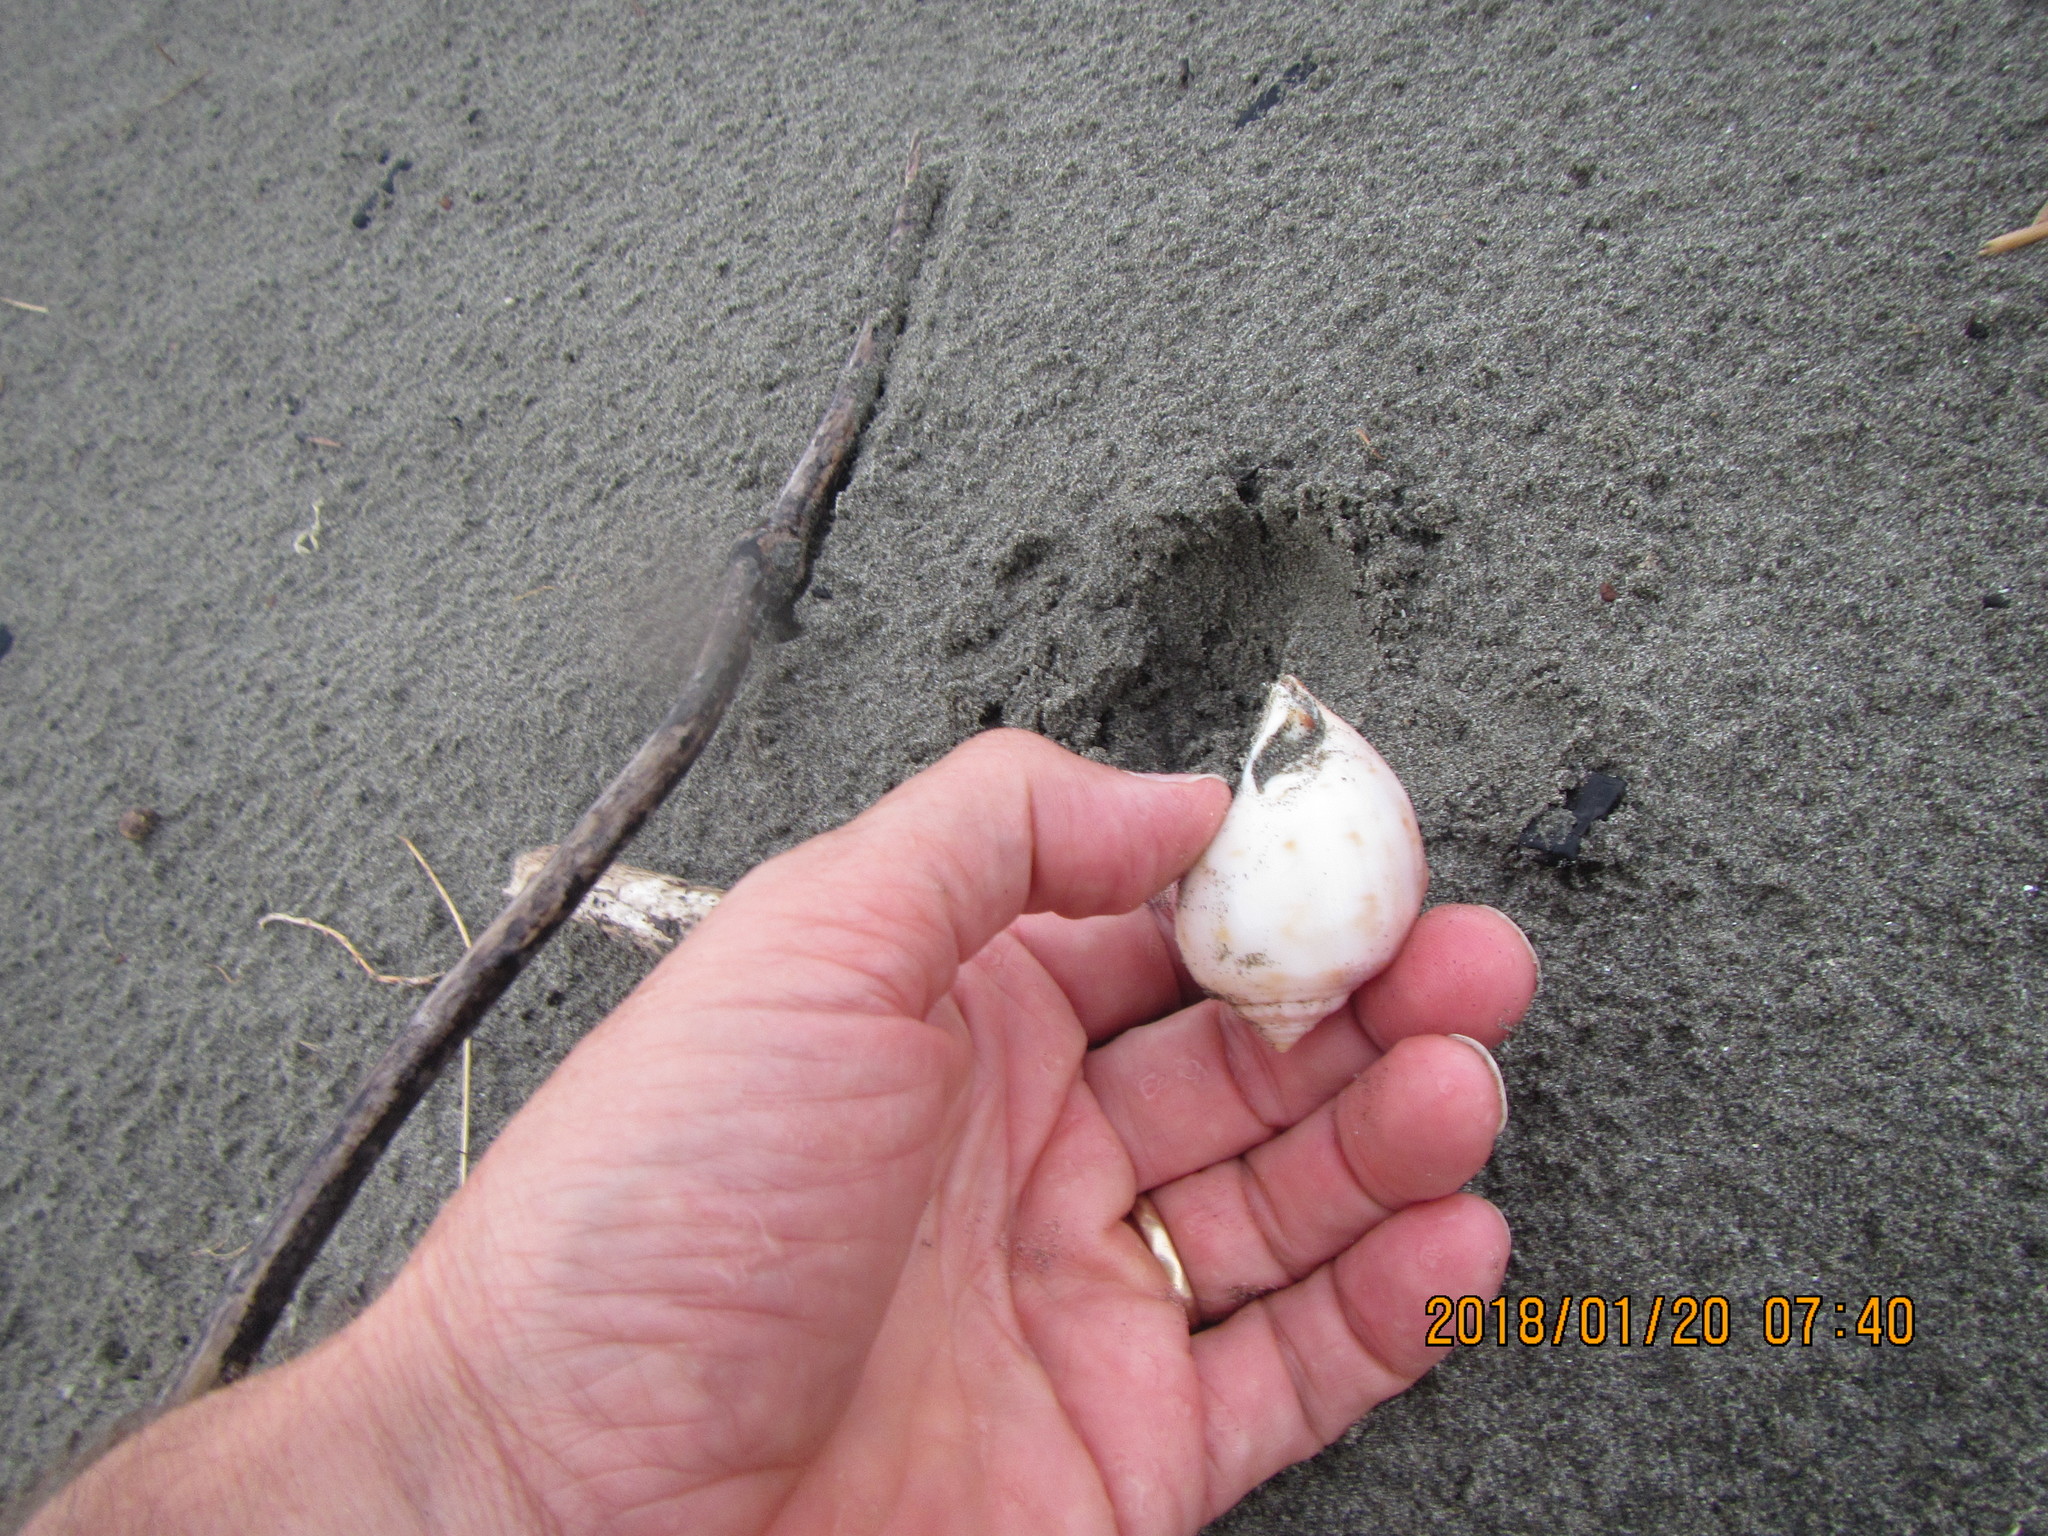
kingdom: Animalia
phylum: Mollusca
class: Gastropoda
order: Littorinimorpha
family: Cassidae
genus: Semicassis
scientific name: Semicassis pyrum
